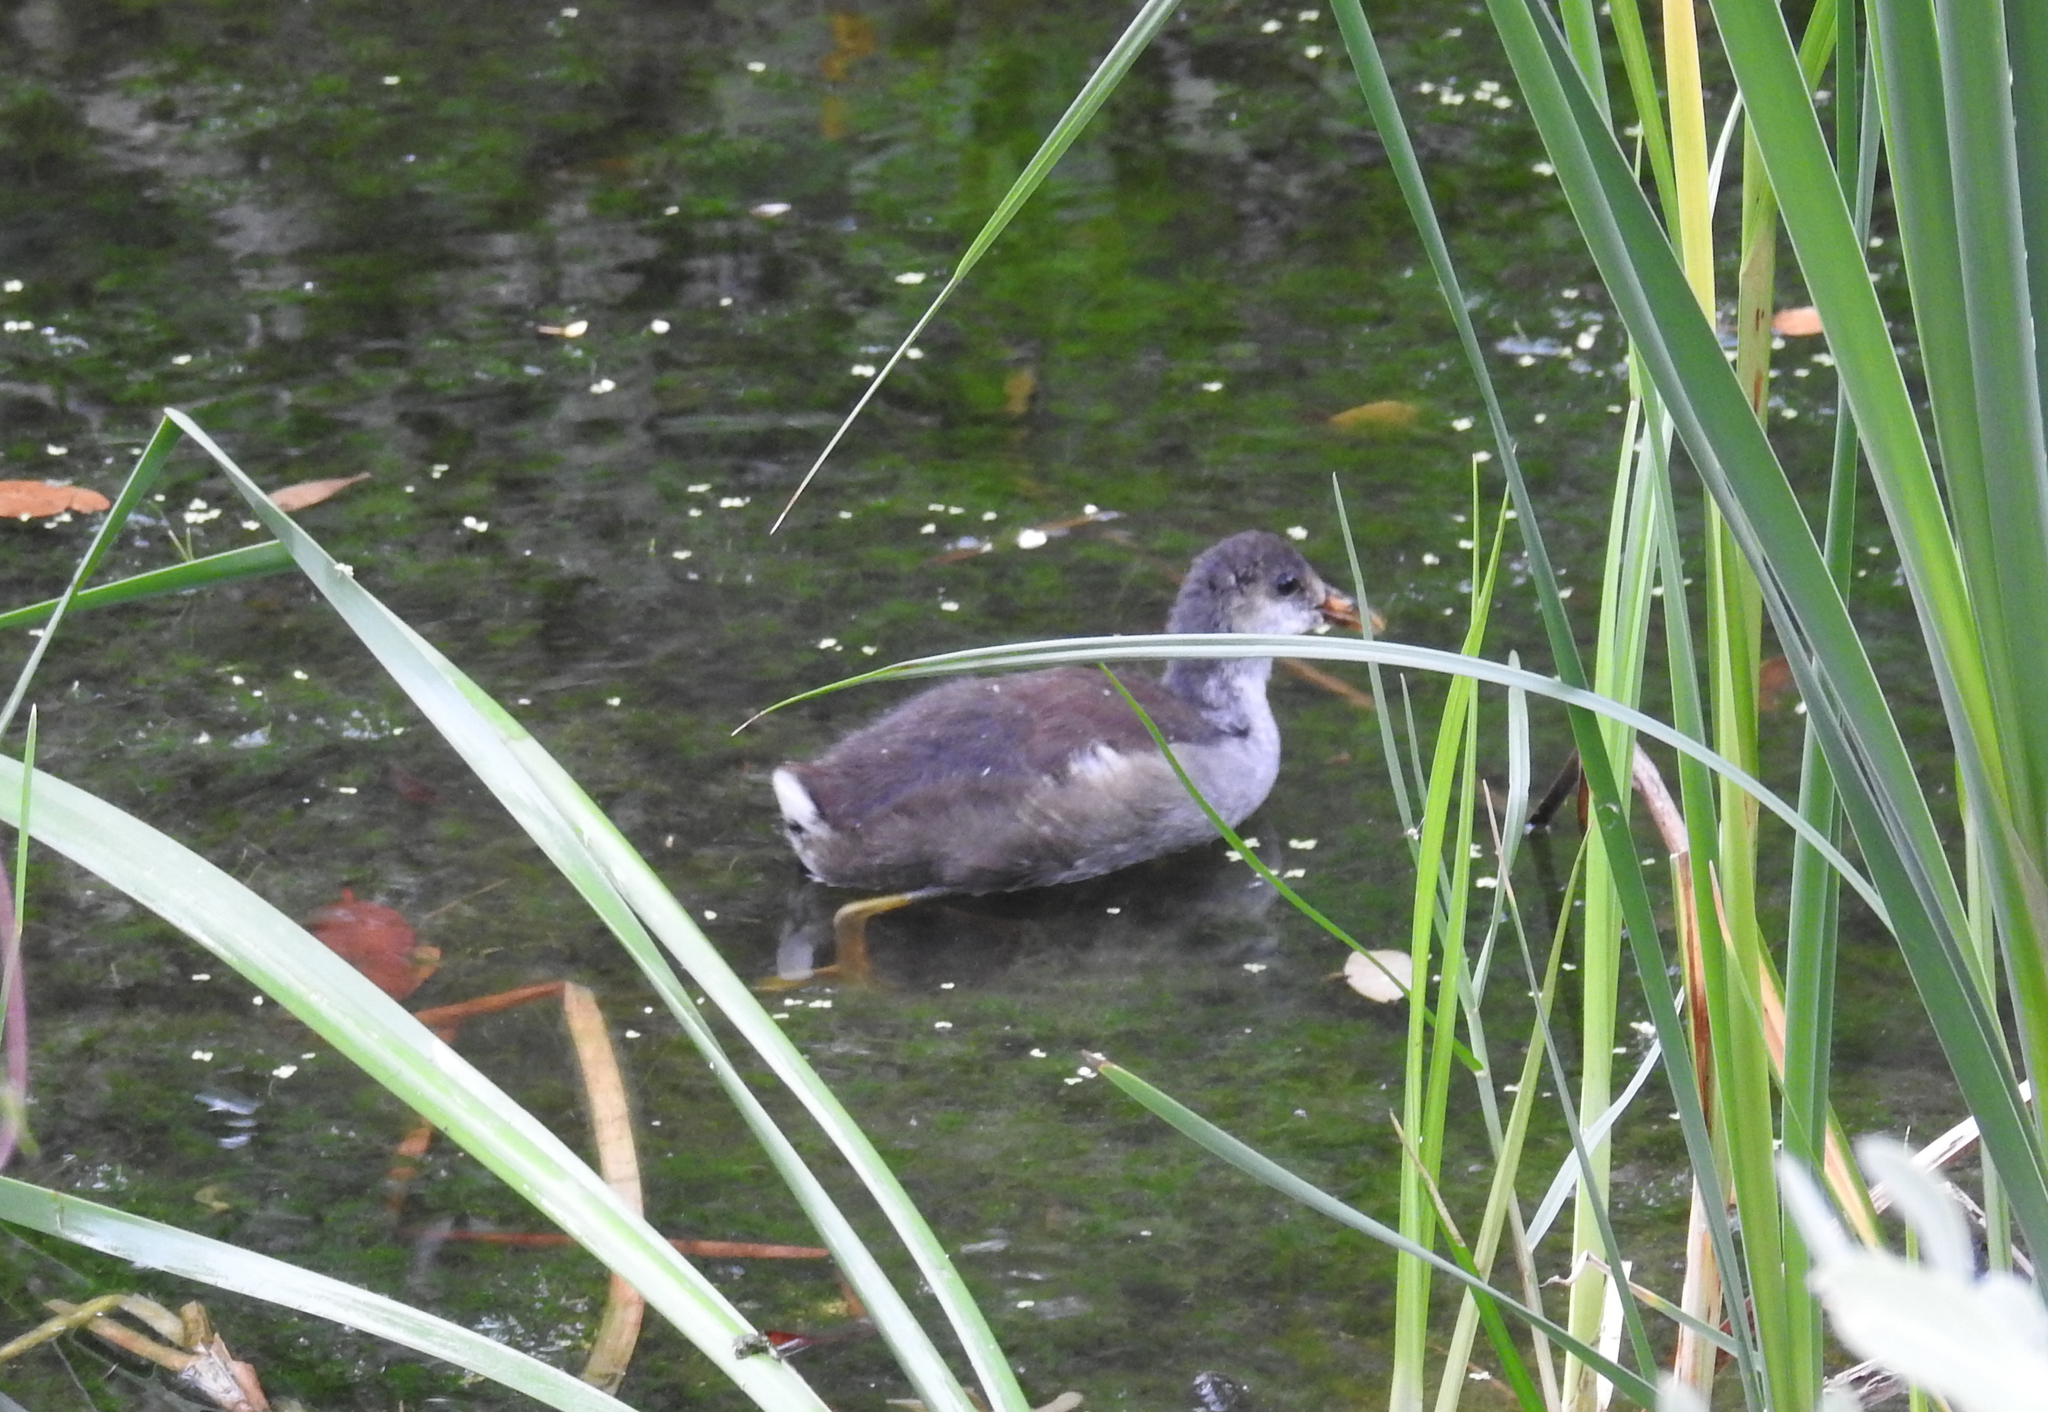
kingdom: Animalia
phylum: Chordata
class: Aves
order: Gruiformes
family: Rallidae
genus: Gallinula
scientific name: Gallinula chloropus
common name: Common moorhen
